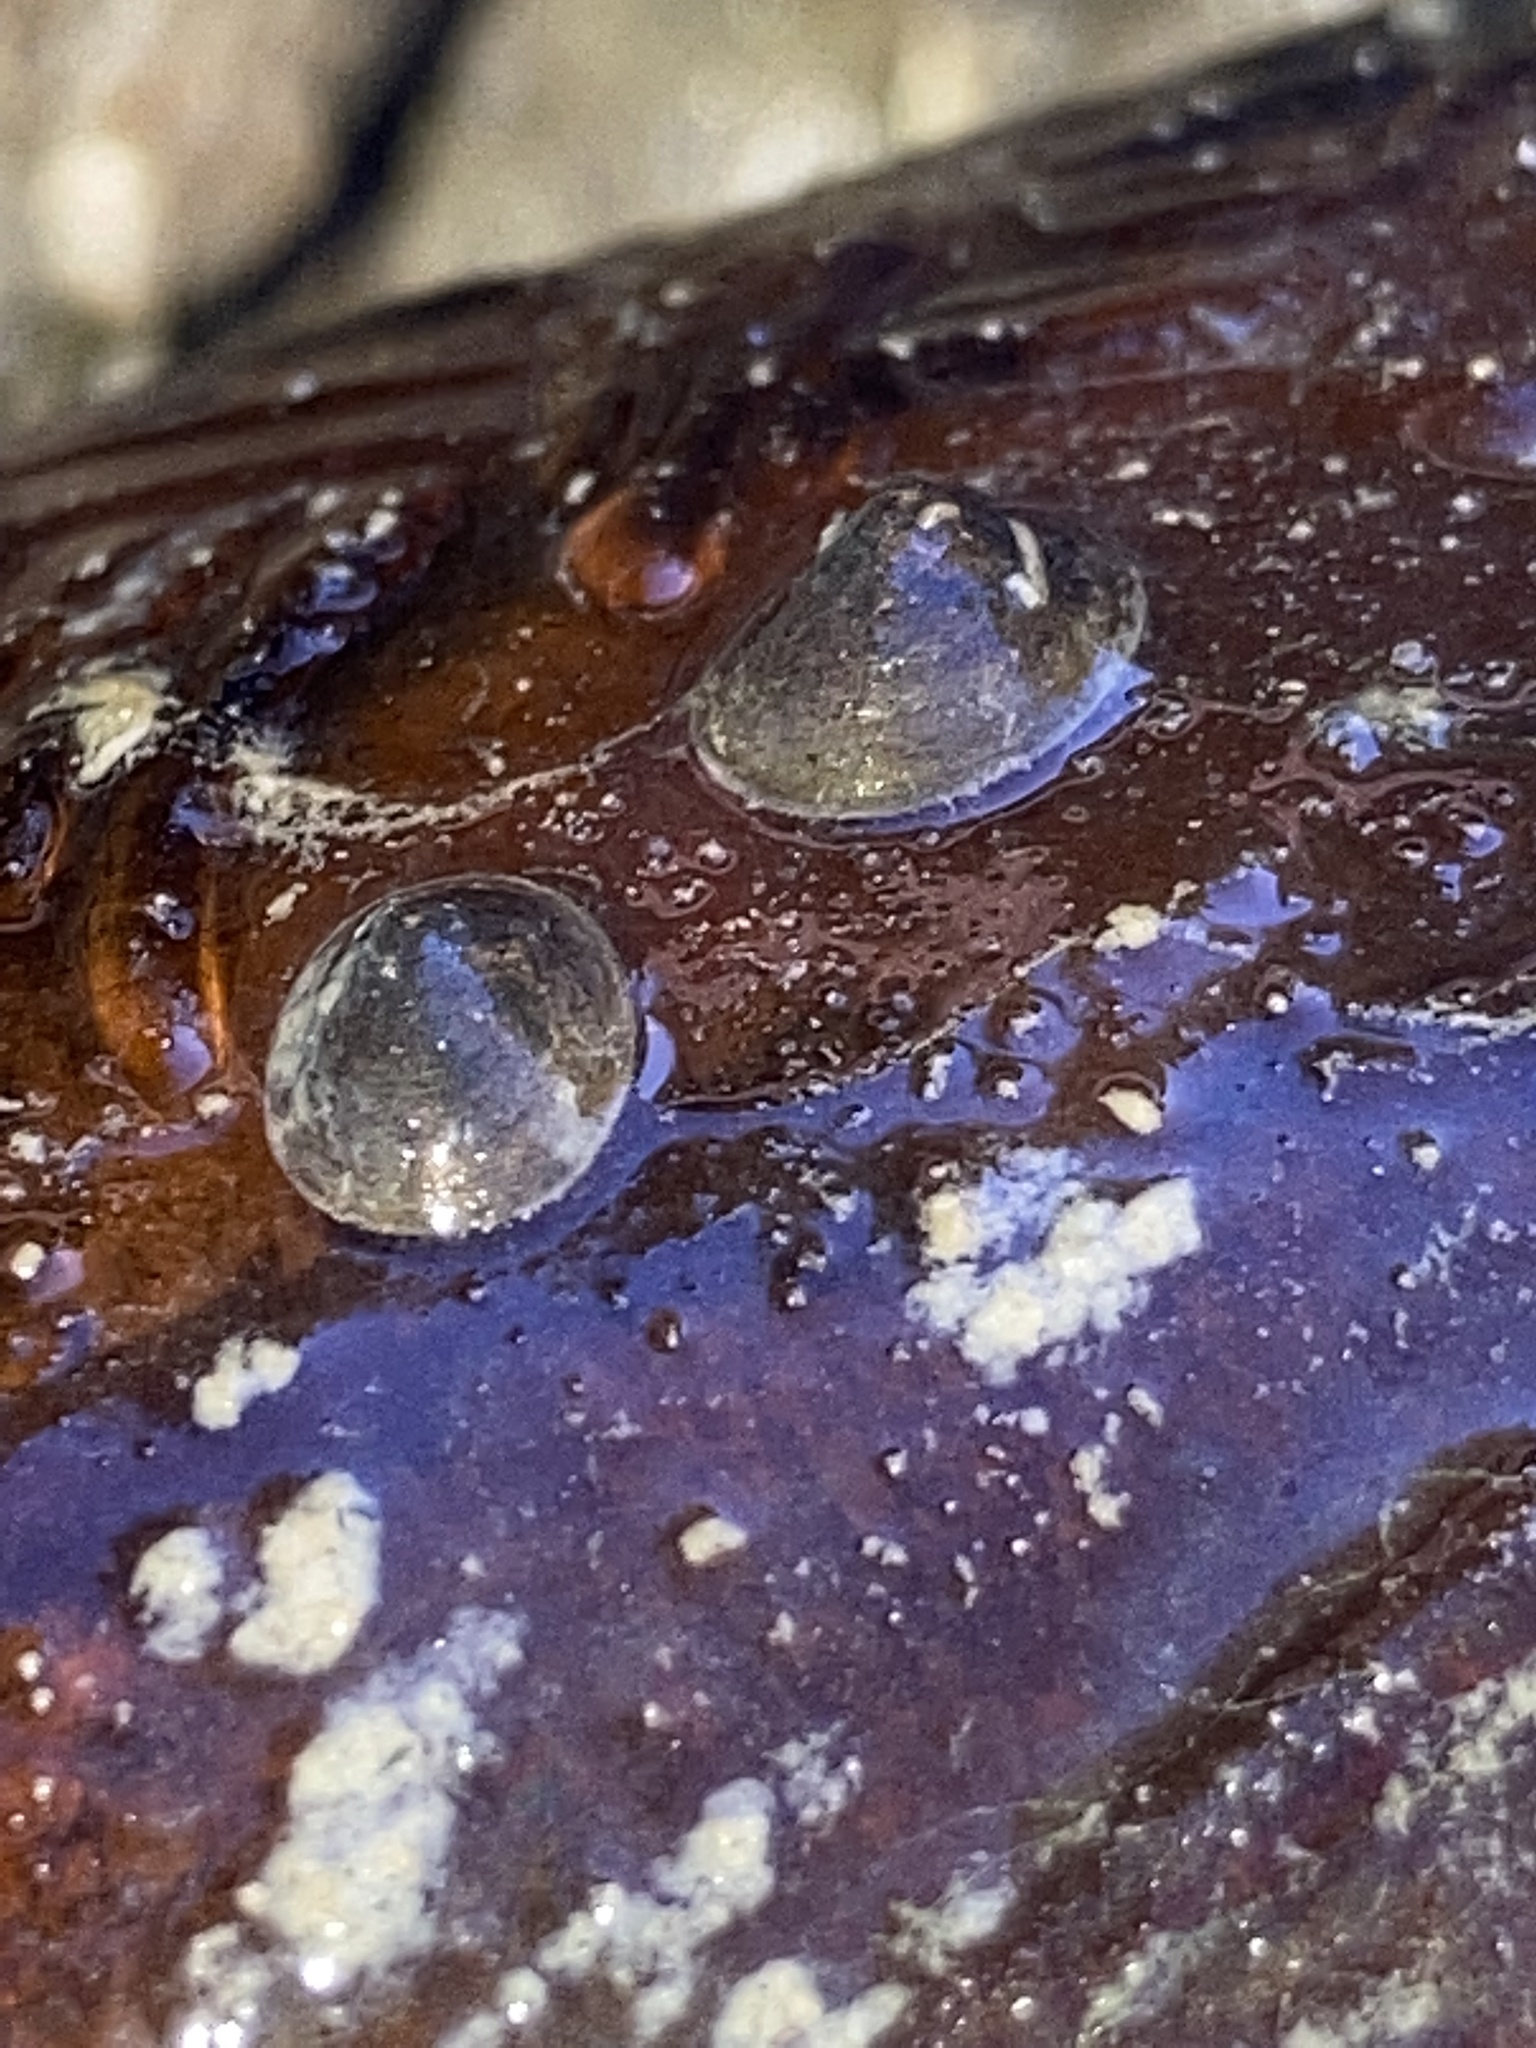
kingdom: Animalia
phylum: Mollusca
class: Gastropoda
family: Planorbidae
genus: Laevapex
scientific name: Laevapex fuscus
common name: Dusky ancylid
